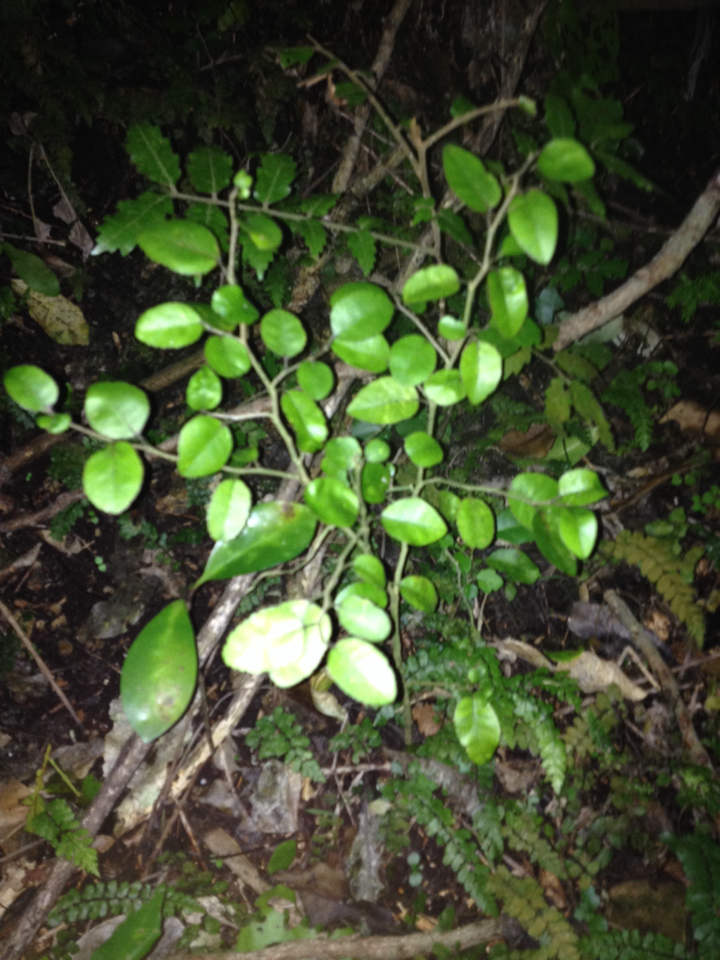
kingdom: Plantae
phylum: Tracheophyta
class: Magnoliopsida
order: Rosales
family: Moraceae
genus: Paratrophis
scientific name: Paratrophis banksii
